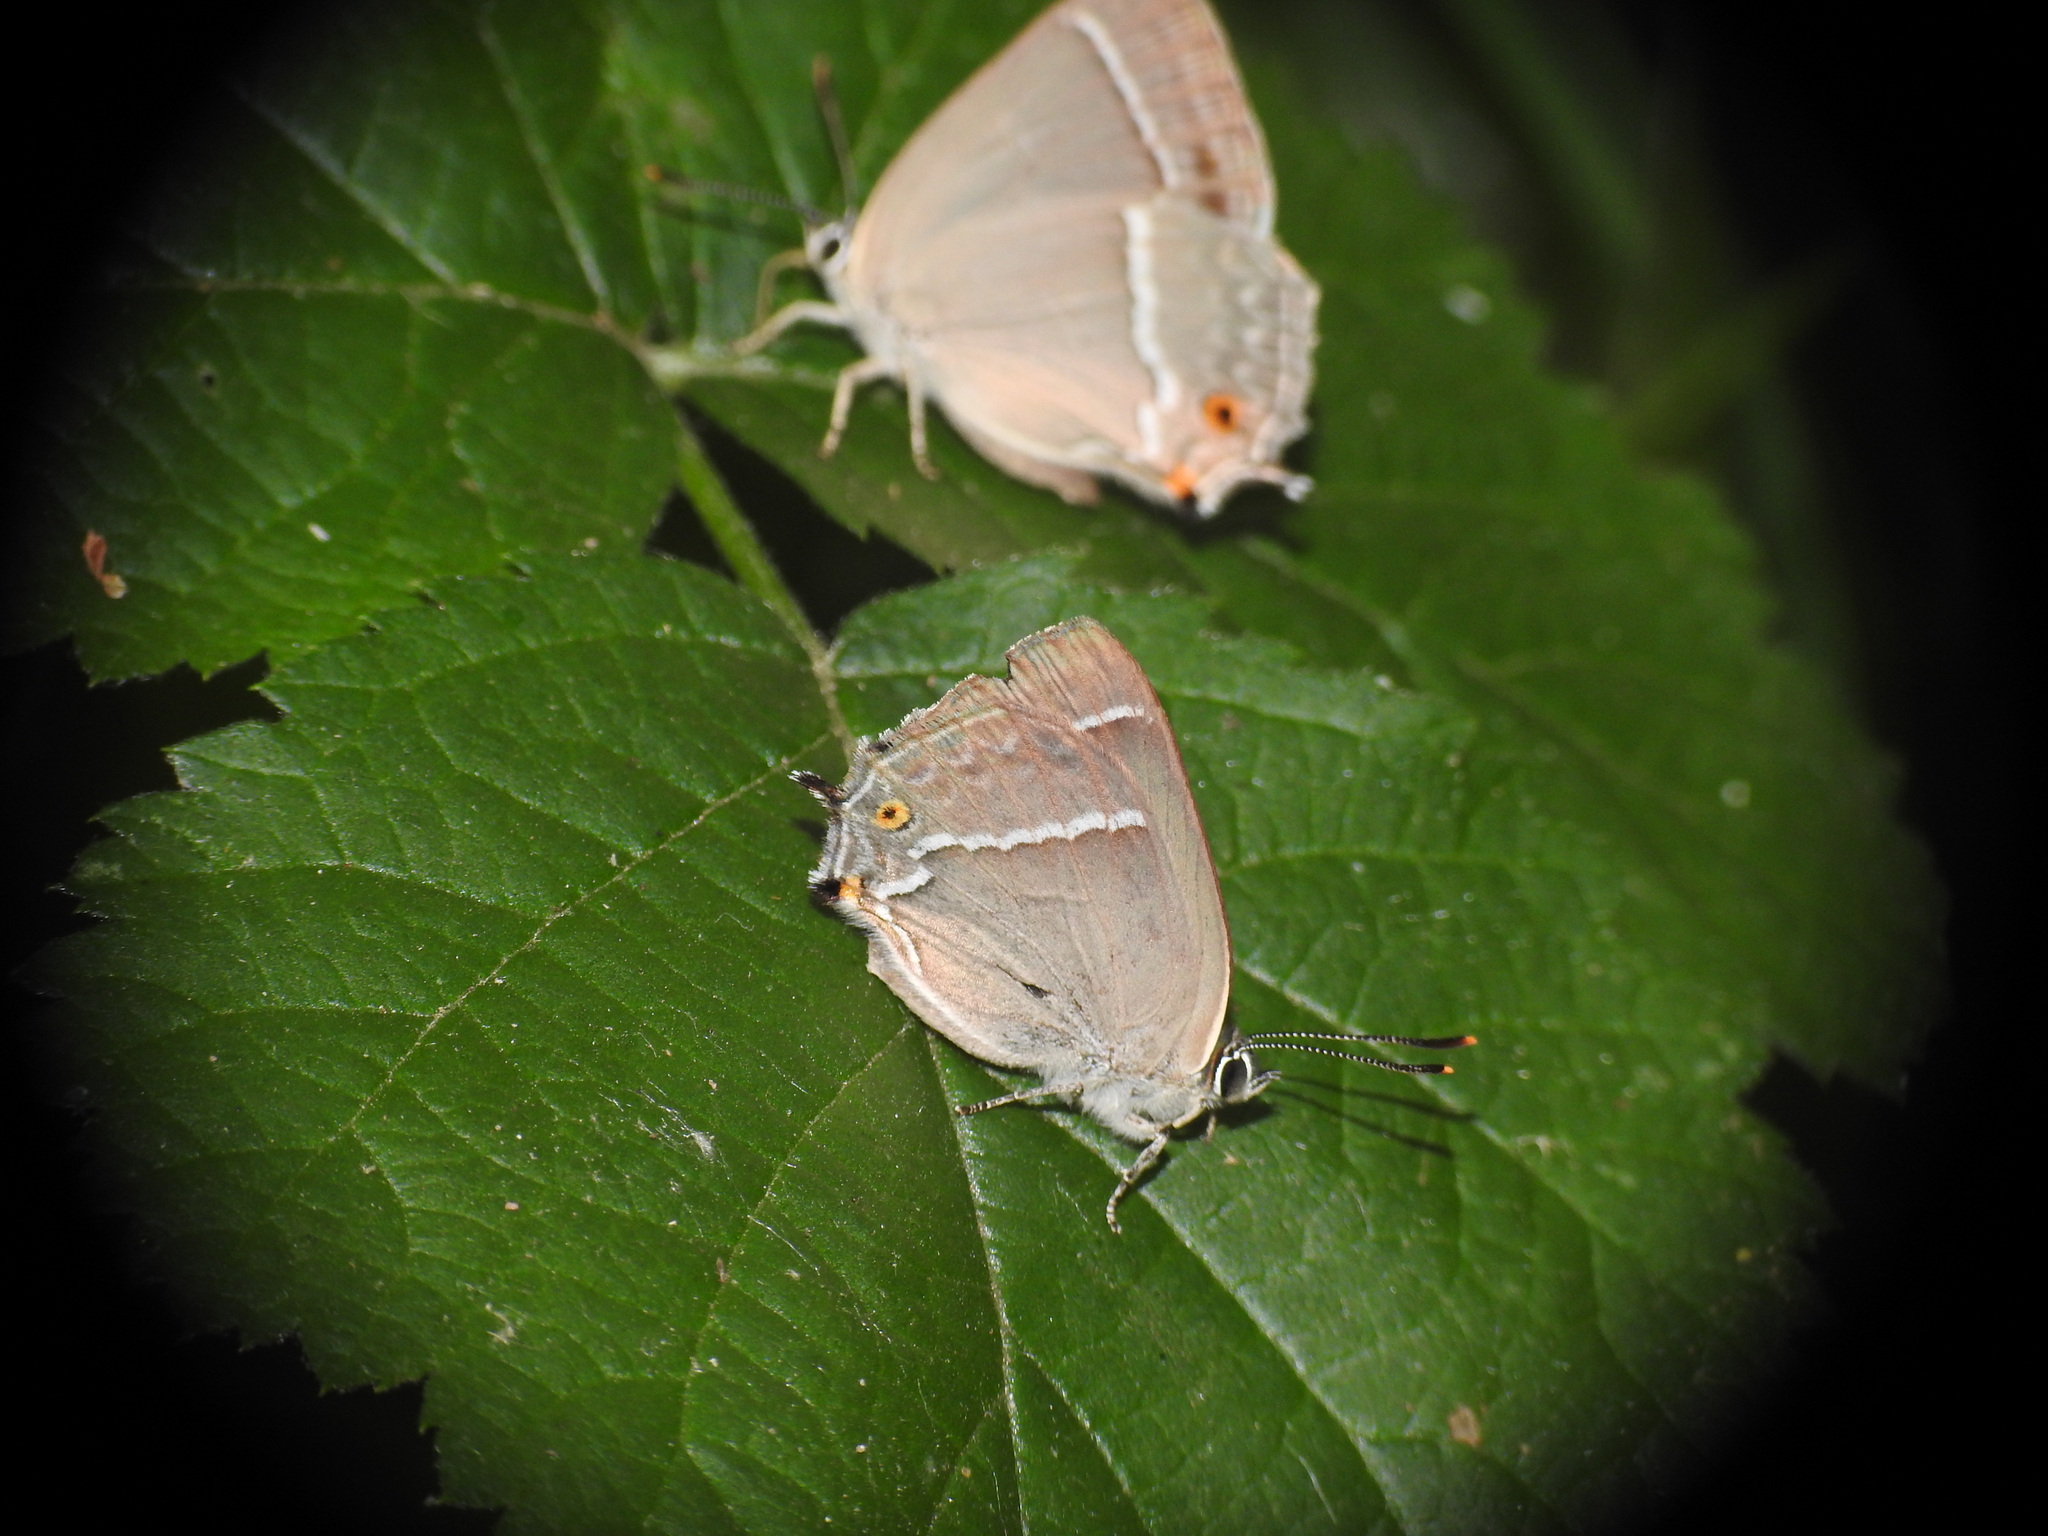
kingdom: Animalia
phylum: Arthropoda
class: Insecta
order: Lepidoptera
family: Lycaenidae
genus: Quercusia
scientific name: Quercusia quercus
